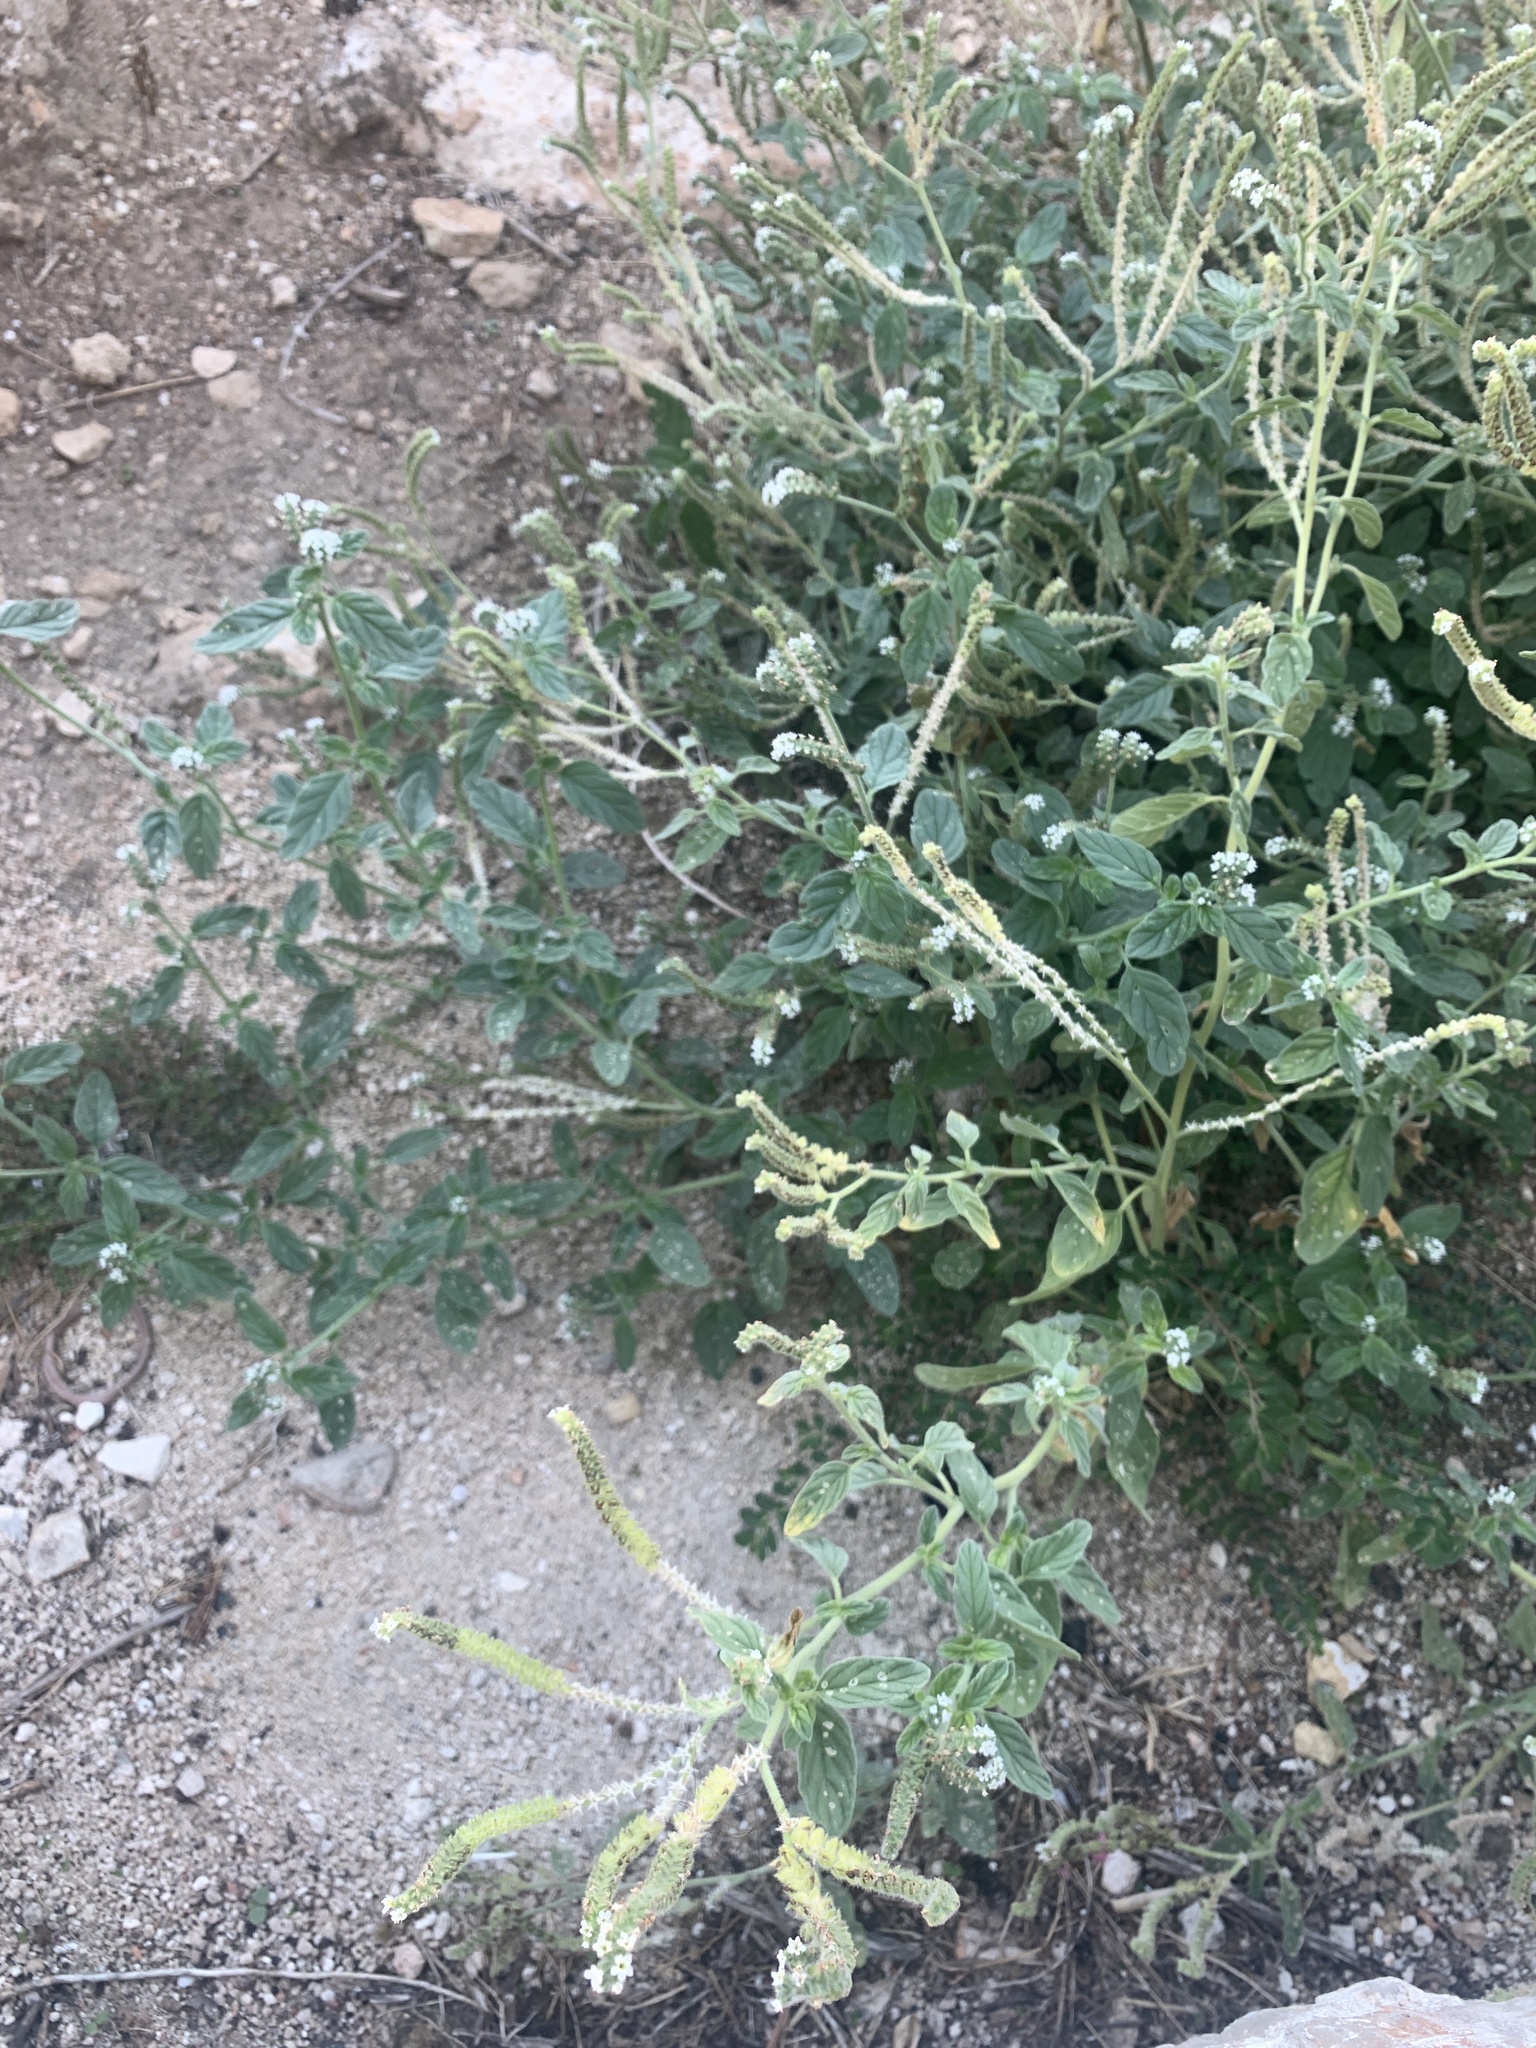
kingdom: Plantae
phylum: Tracheophyta
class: Magnoliopsida
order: Boraginales
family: Heliotropiaceae
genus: Heliotropium
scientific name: Heliotropium europaeum
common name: European heliotrope
